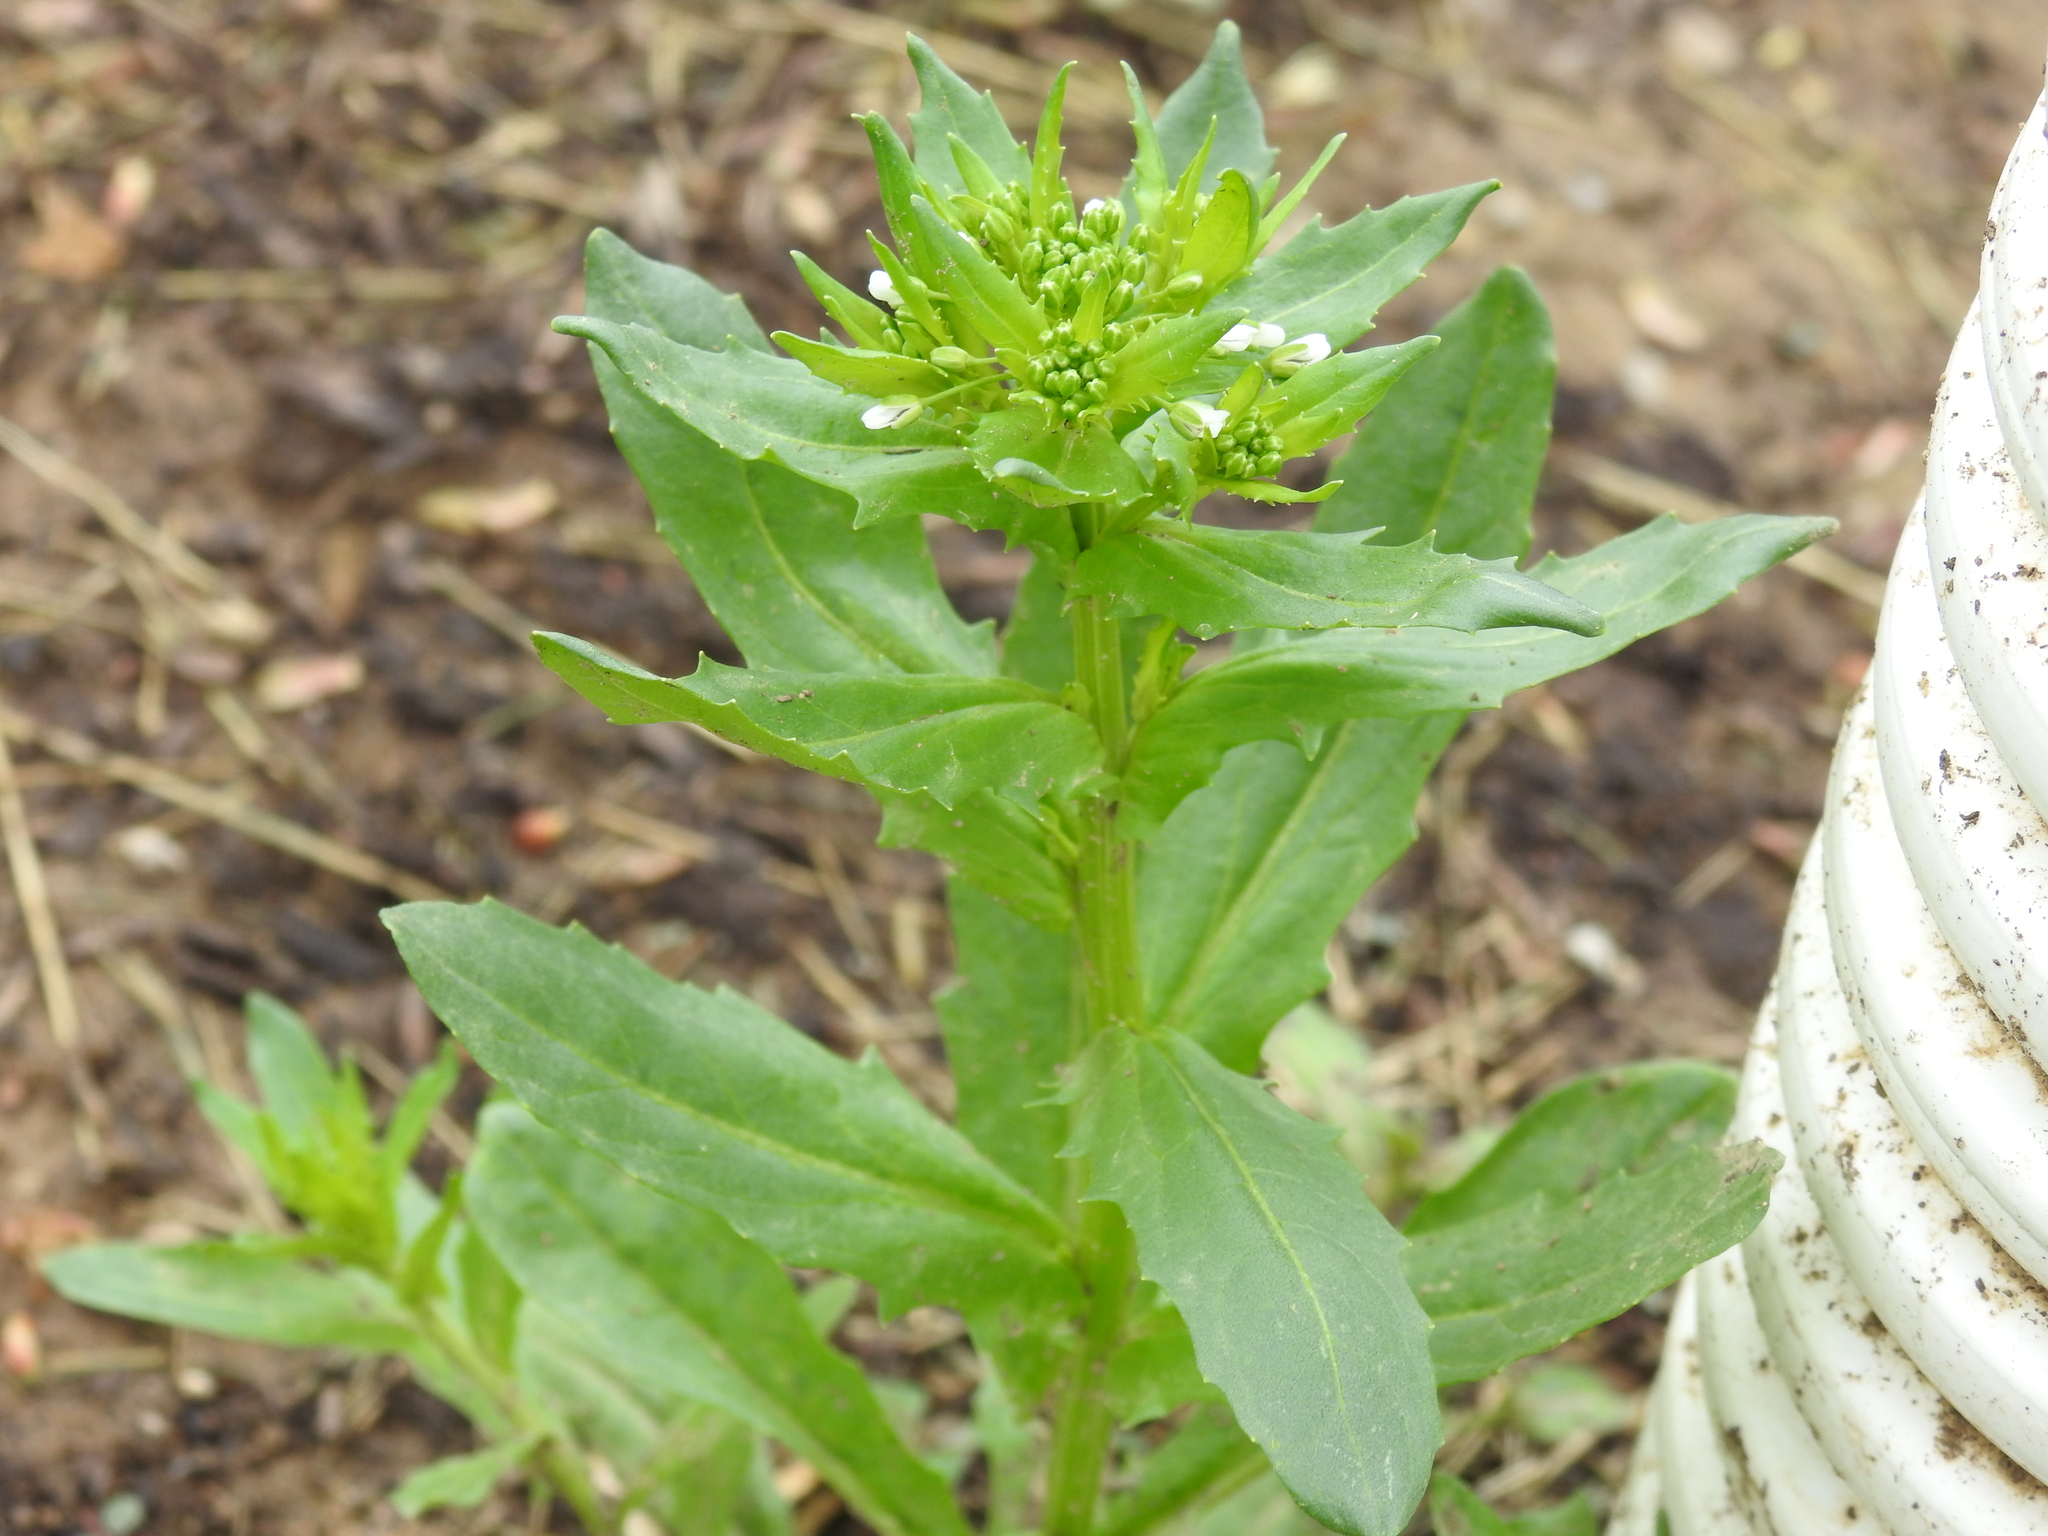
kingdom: Plantae
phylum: Tracheophyta
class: Magnoliopsida
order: Brassicales
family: Brassicaceae
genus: Thlaspi
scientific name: Thlaspi arvense
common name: Field pennycress
